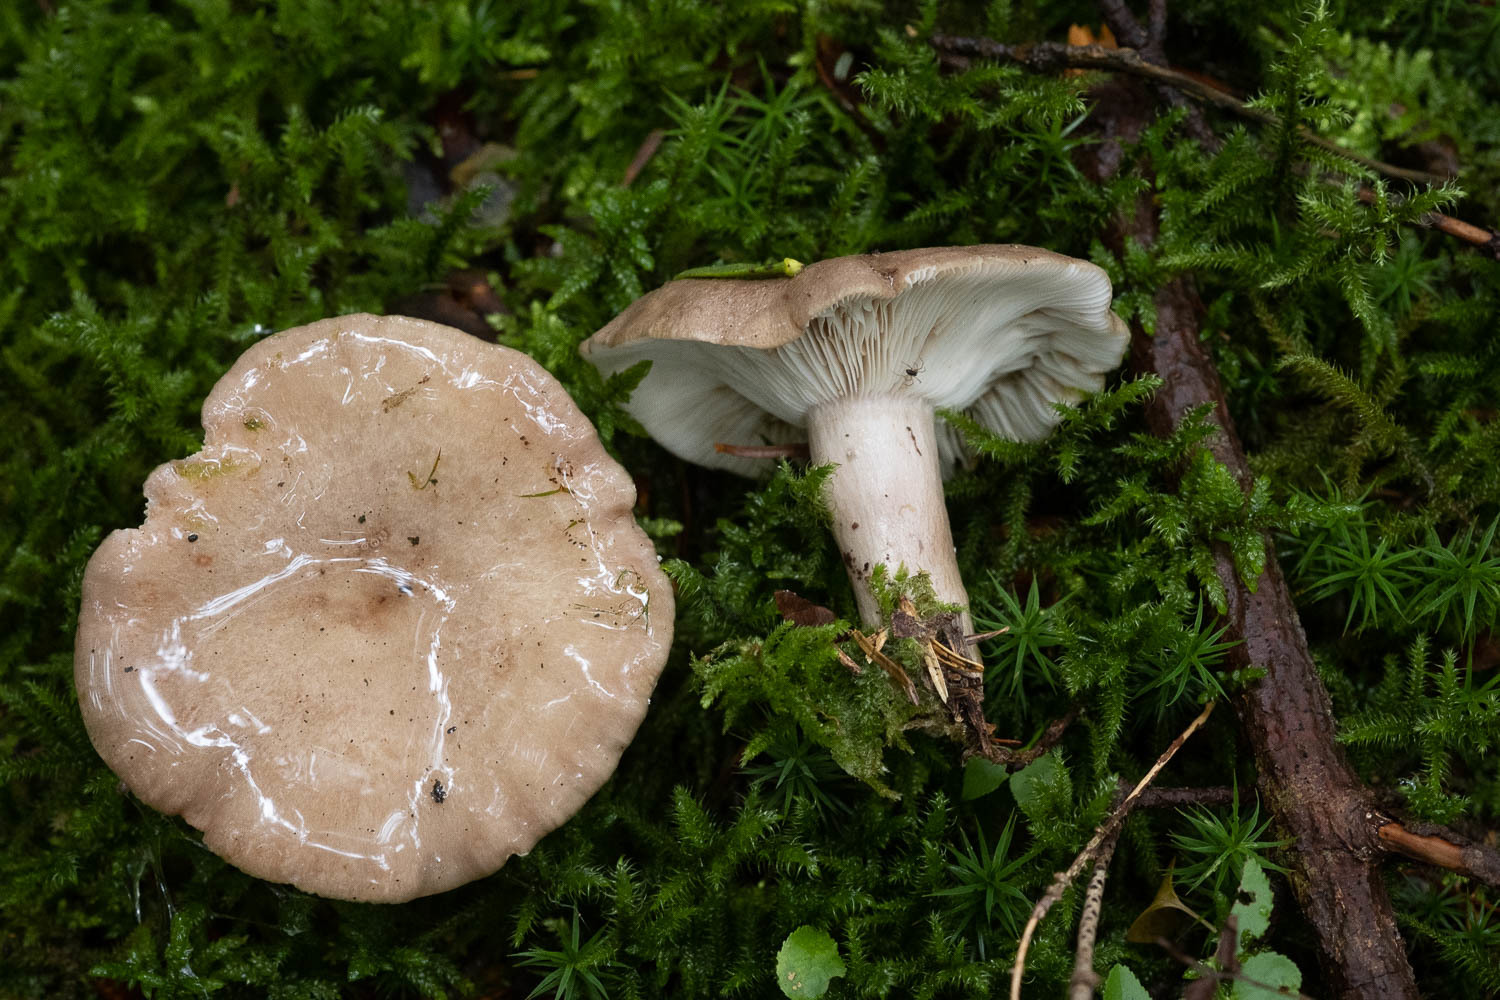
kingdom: Fungi
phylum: Basidiomycota
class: Agaricomycetes
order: Russulales
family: Russulaceae
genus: Lactarius
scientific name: Lactarius albocarneus
